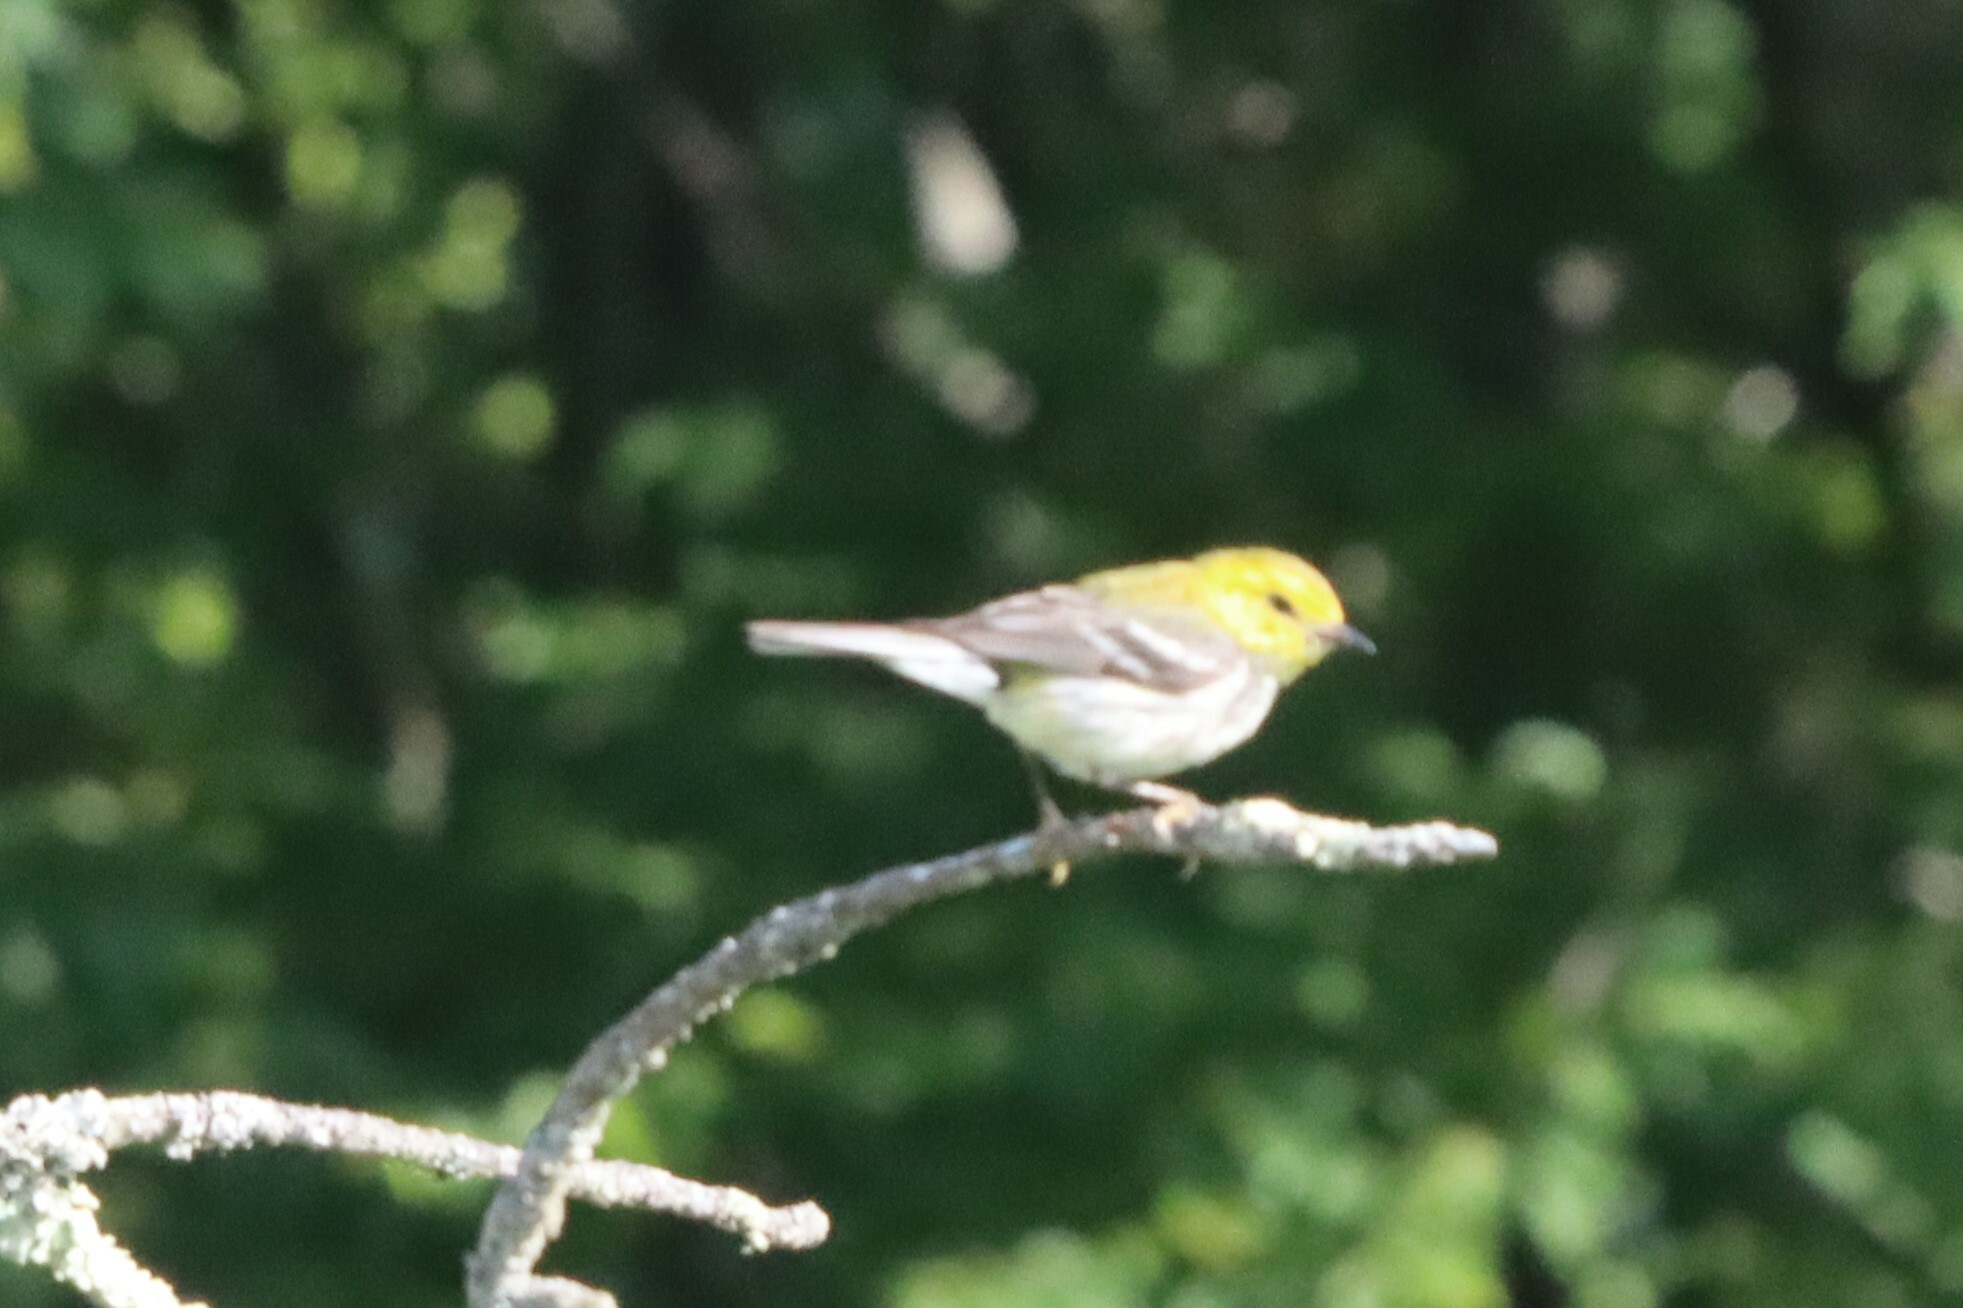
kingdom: Animalia
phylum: Chordata
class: Aves
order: Passeriformes
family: Parulidae
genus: Setophaga
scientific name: Setophaga pinus
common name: Pine warbler
